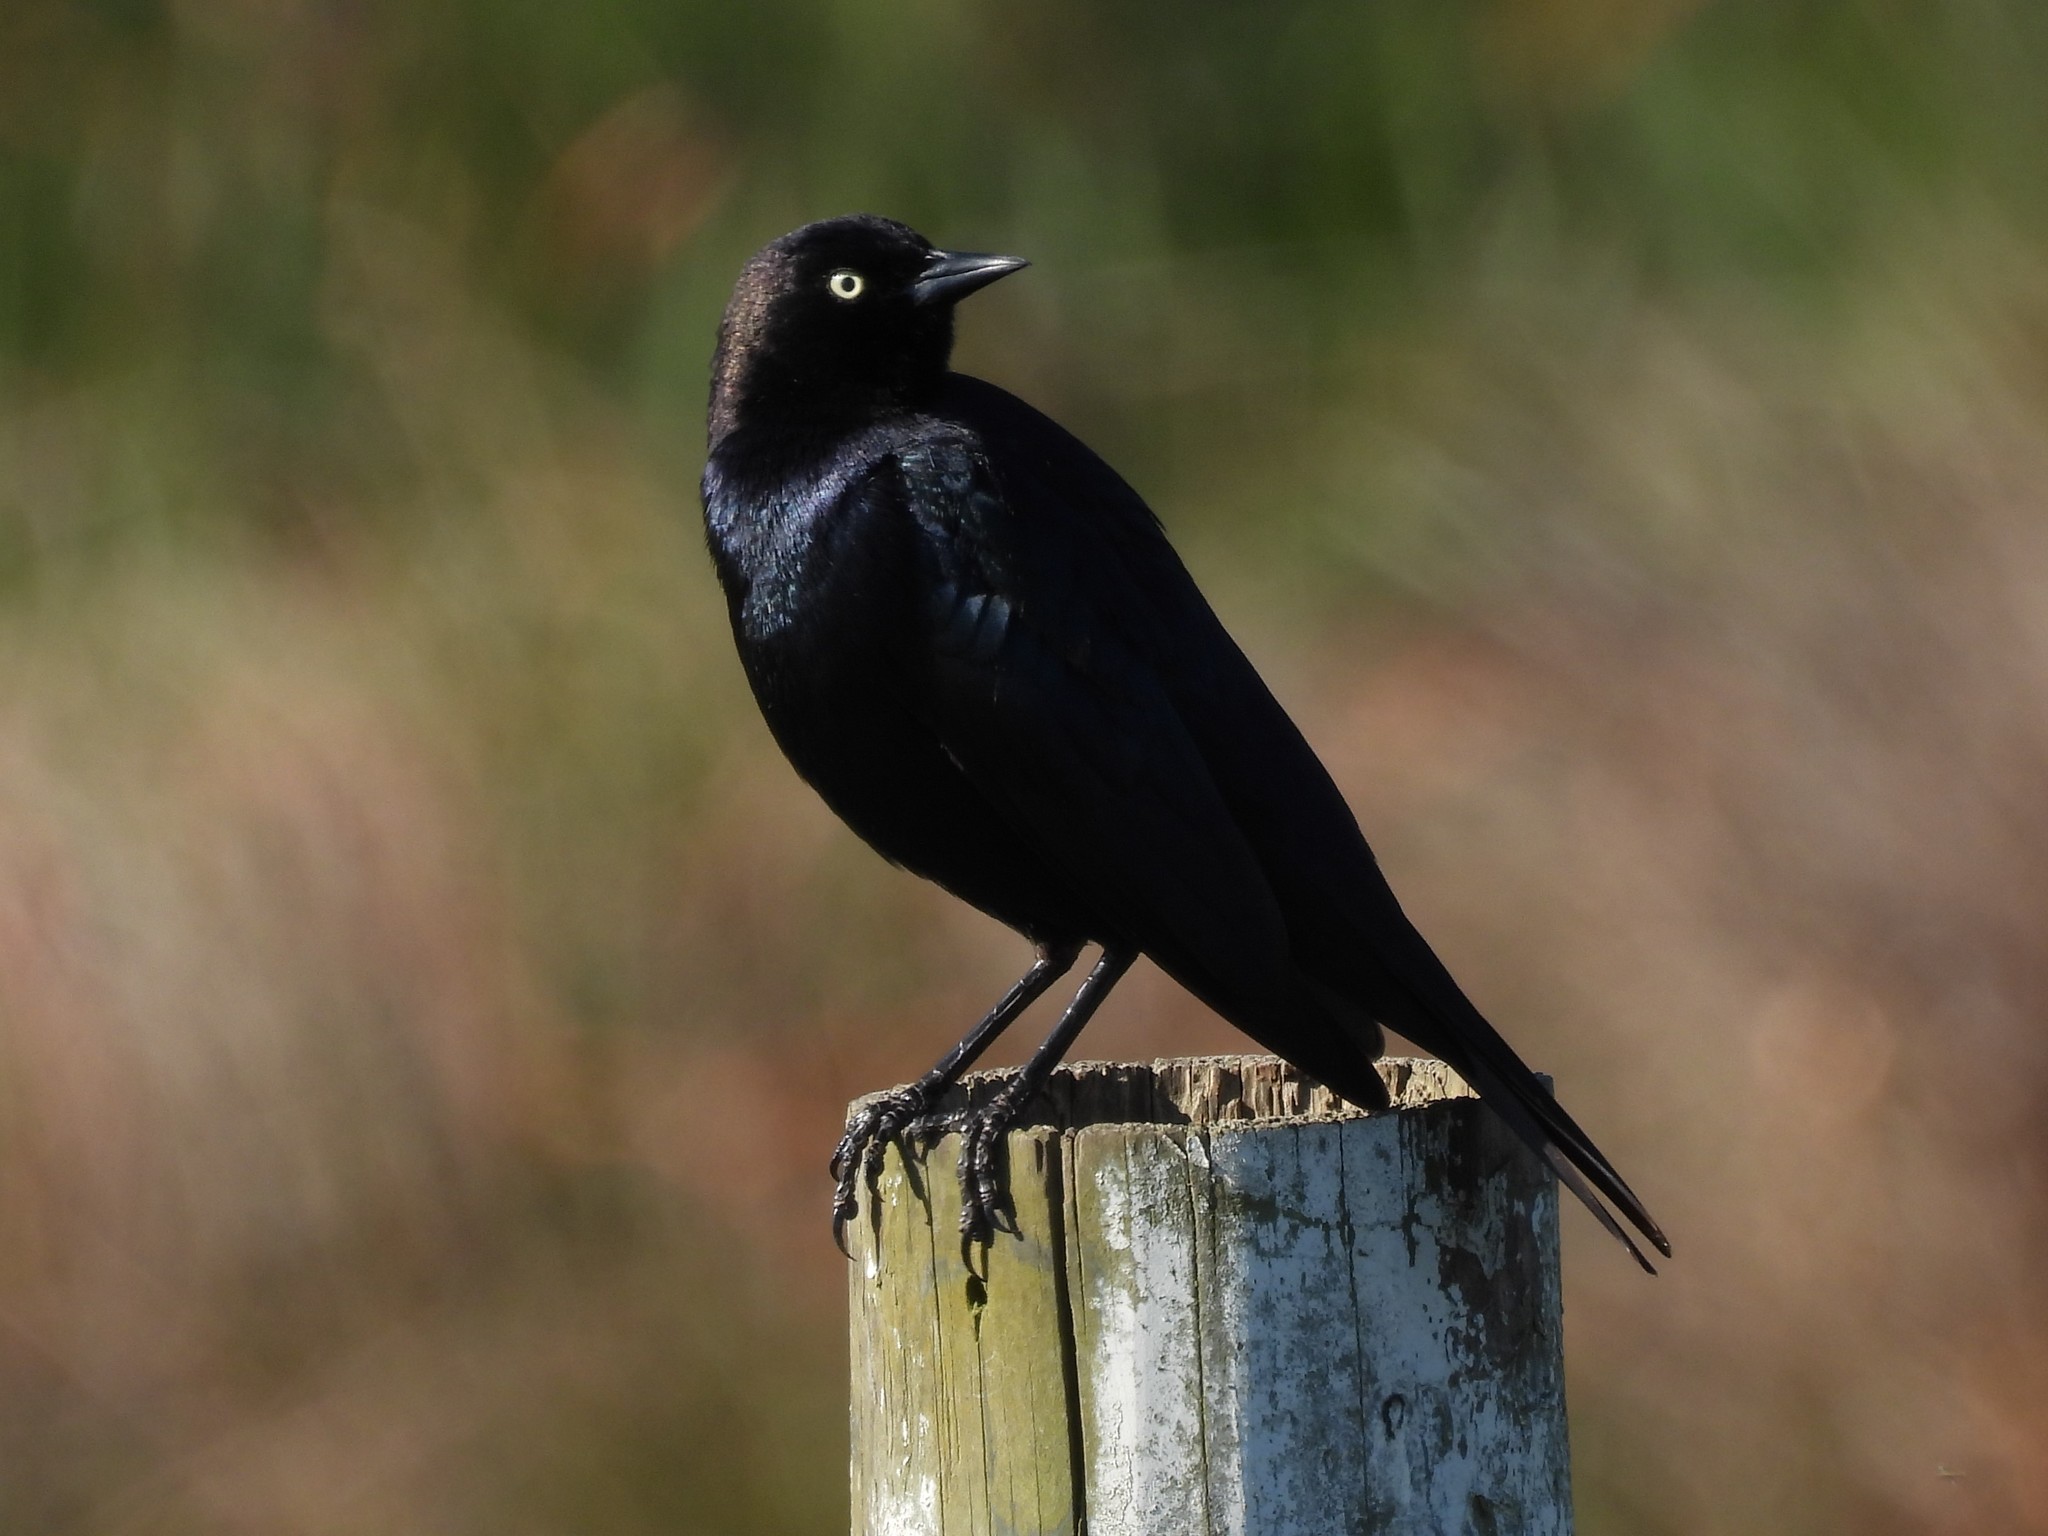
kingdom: Animalia
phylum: Chordata
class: Aves
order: Passeriformes
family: Icteridae
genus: Euphagus
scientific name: Euphagus cyanocephalus
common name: Brewer's blackbird
